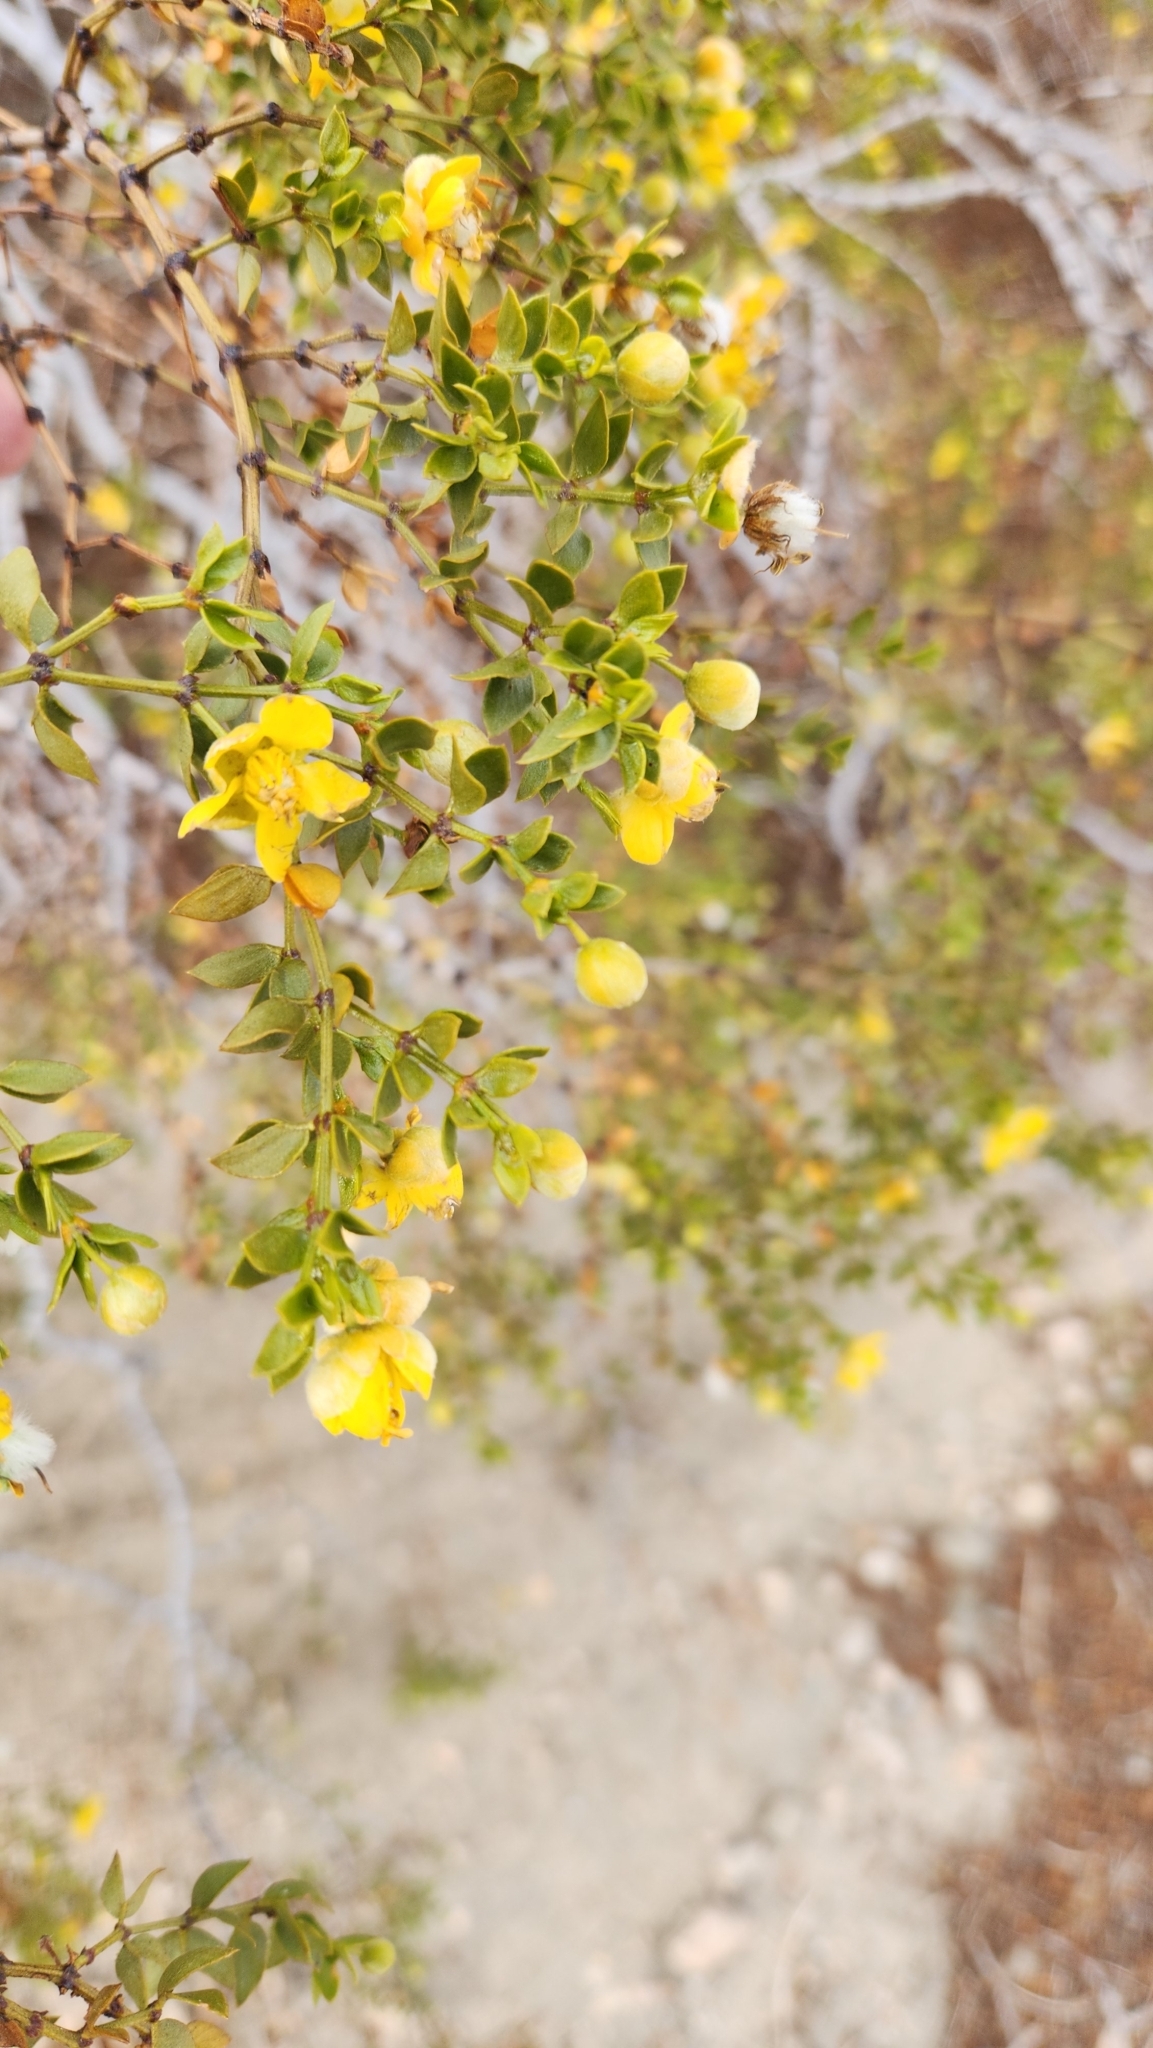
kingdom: Plantae
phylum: Tracheophyta
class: Magnoliopsida
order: Zygophyllales
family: Zygophyllaceae
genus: Larrea
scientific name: Larrea tridentata
